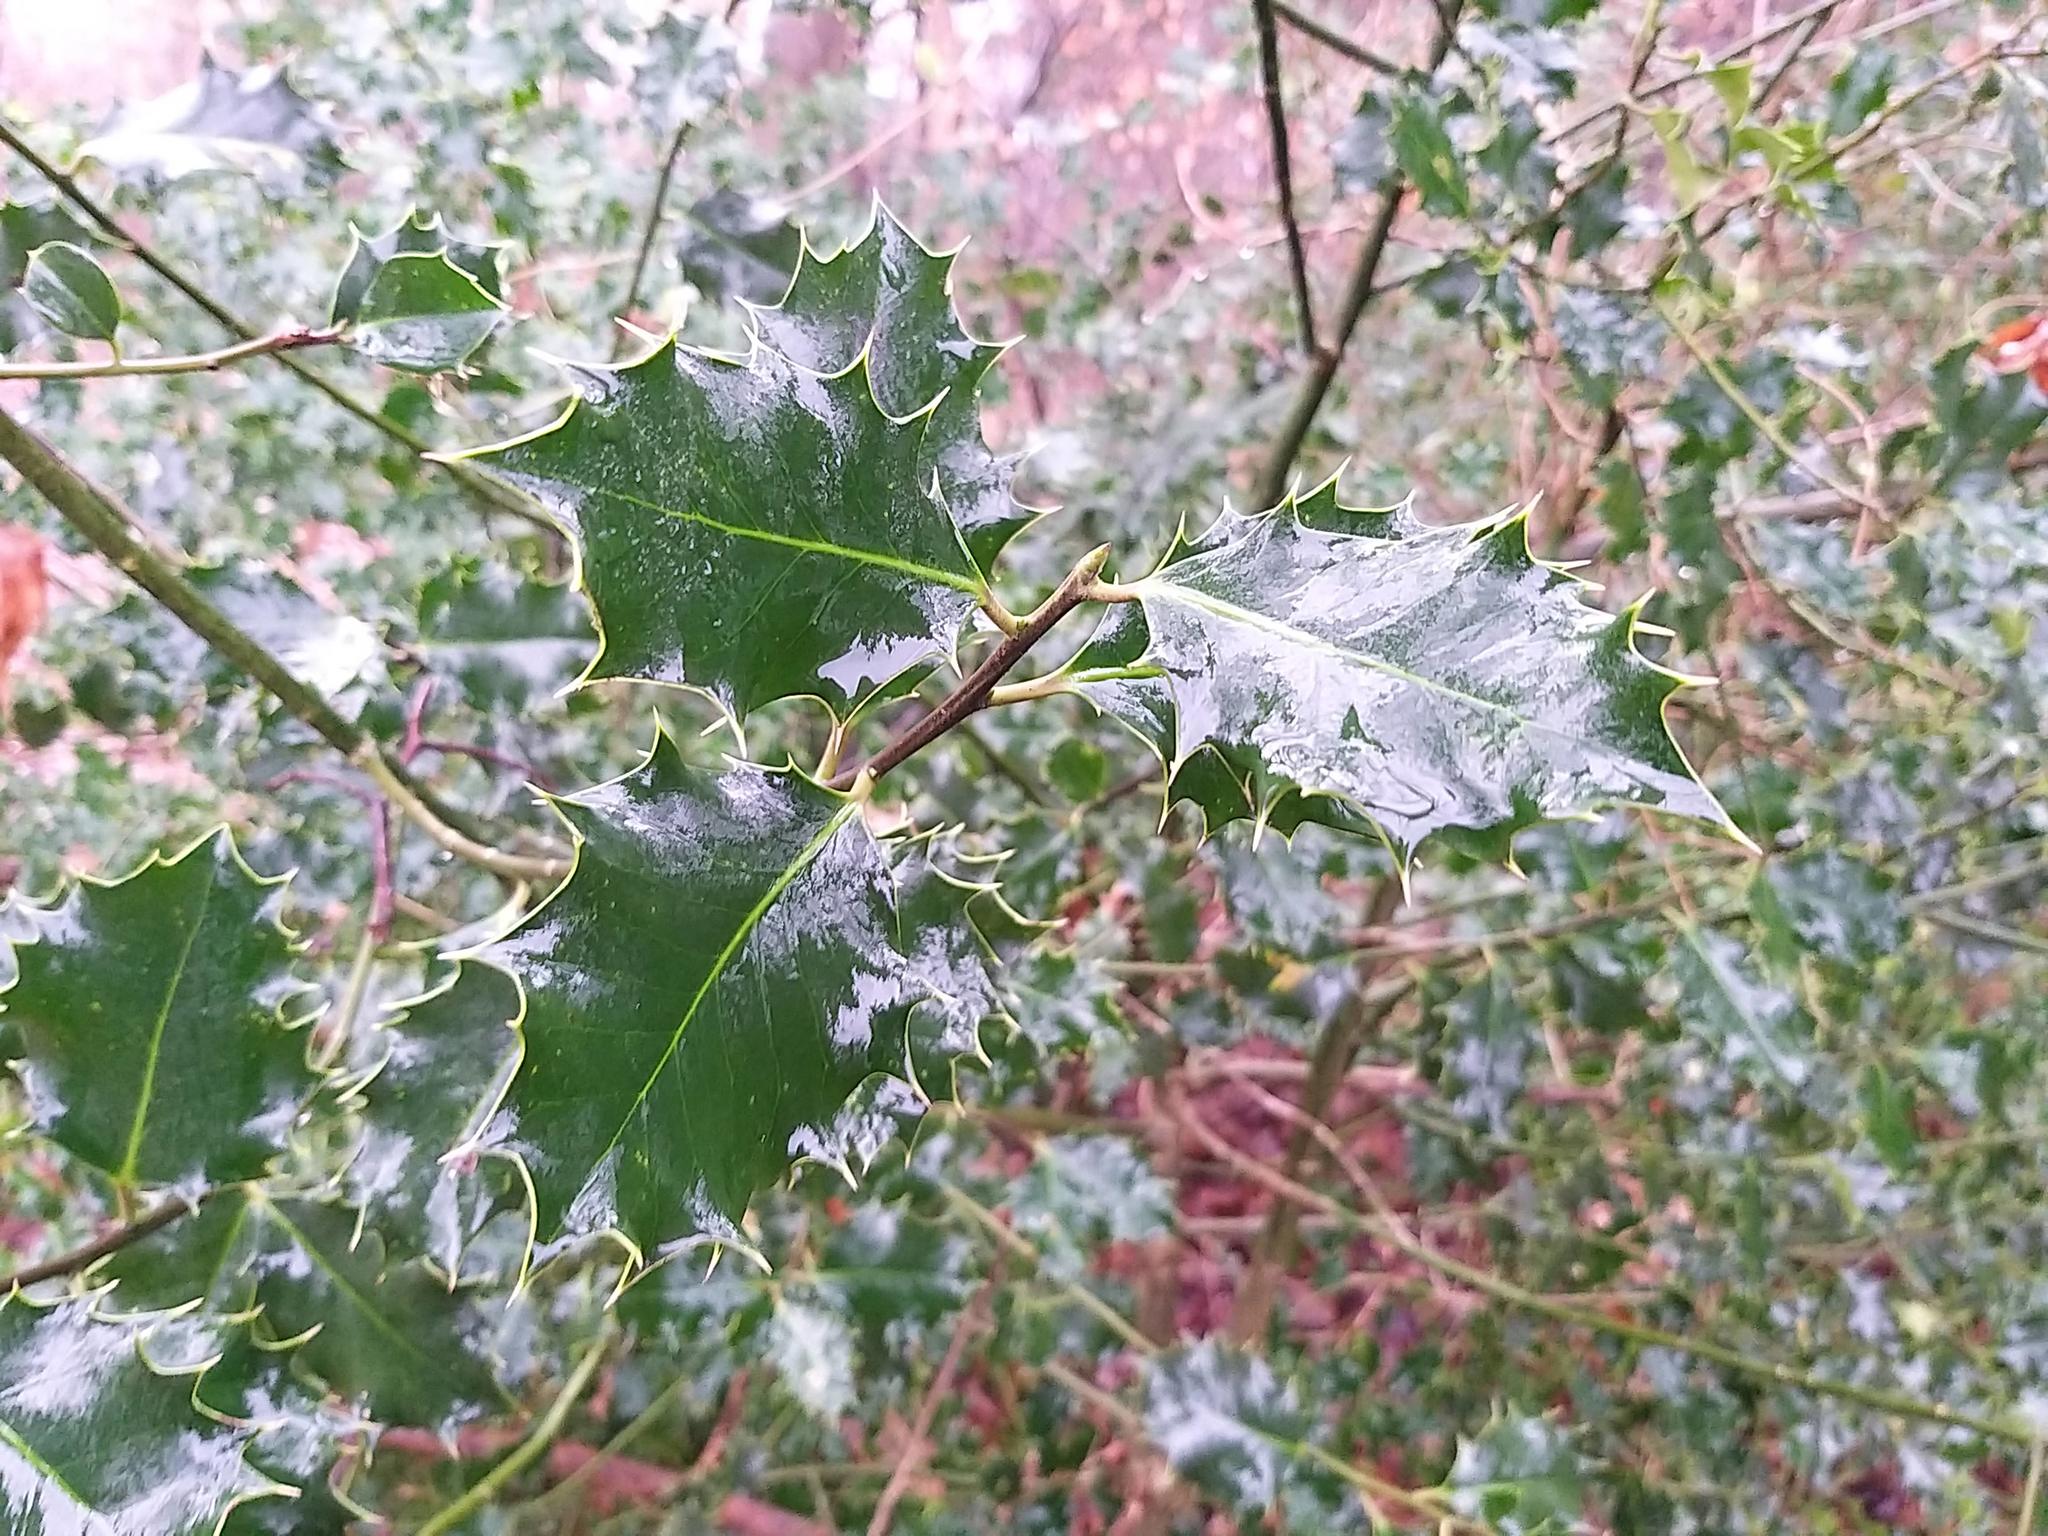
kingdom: Plantae
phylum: Tracheophyta
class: Magnoliopsida
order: Aquifoliales
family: Aquifoliaceae
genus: Ilex
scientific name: Ilex aquifolium
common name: English holly
